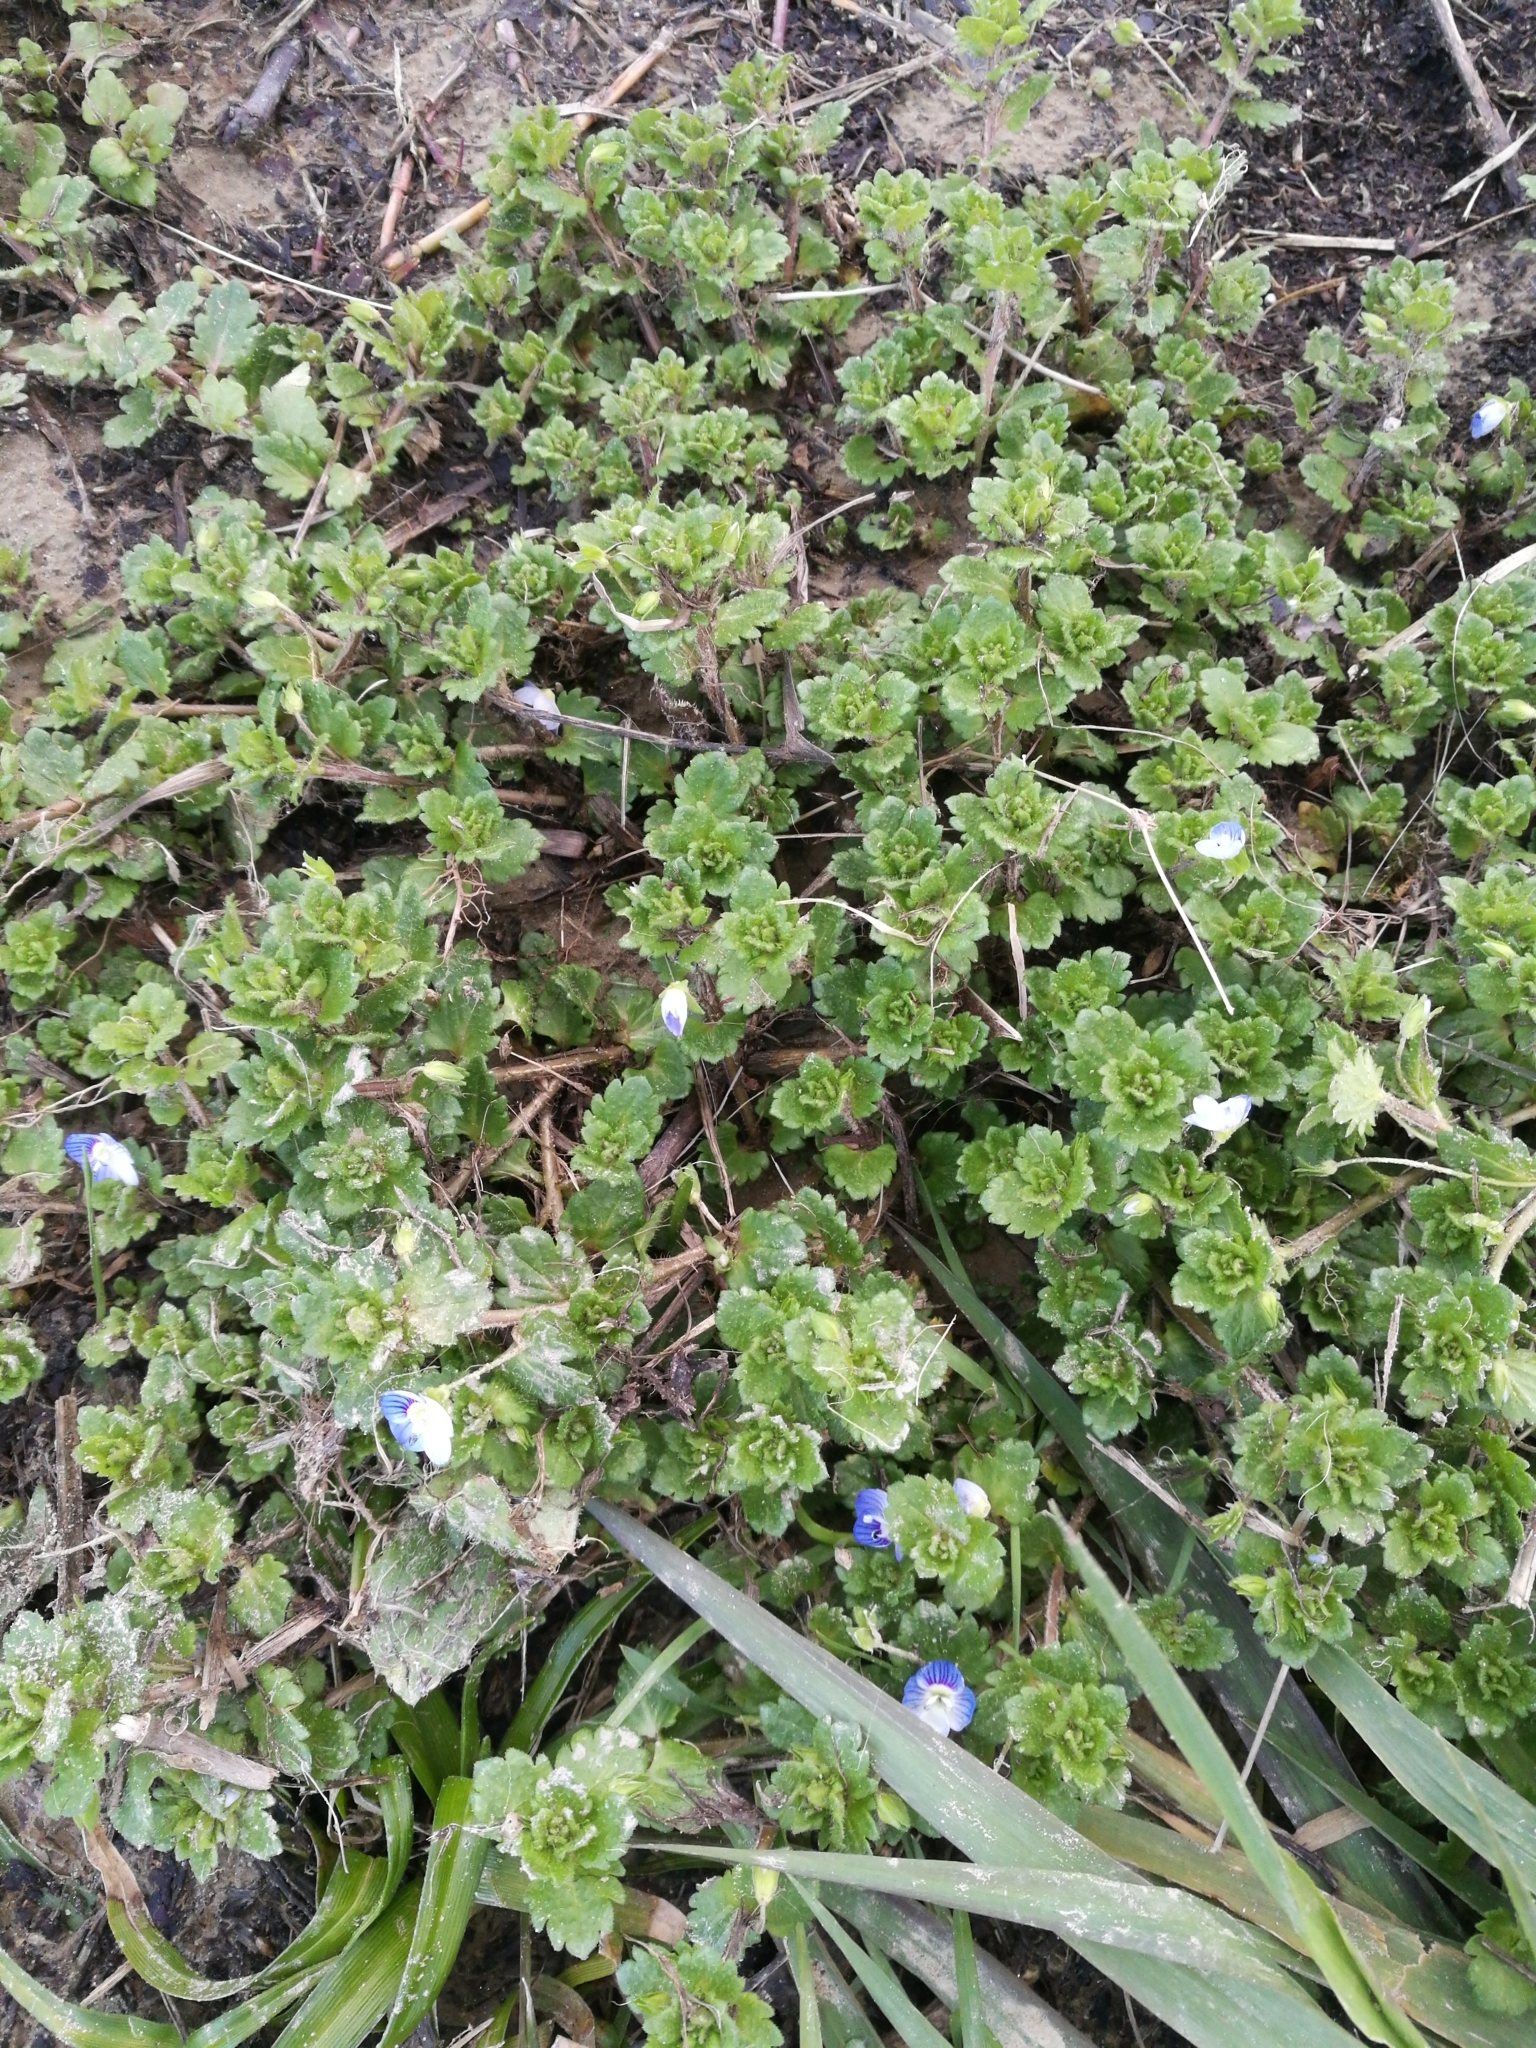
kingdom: Plantae
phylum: Tracheophyta
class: Magnoliopsida
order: Lamiales
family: Plantaginaceae
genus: Veronica
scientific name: Veronica persica
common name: Common field-speedwell
